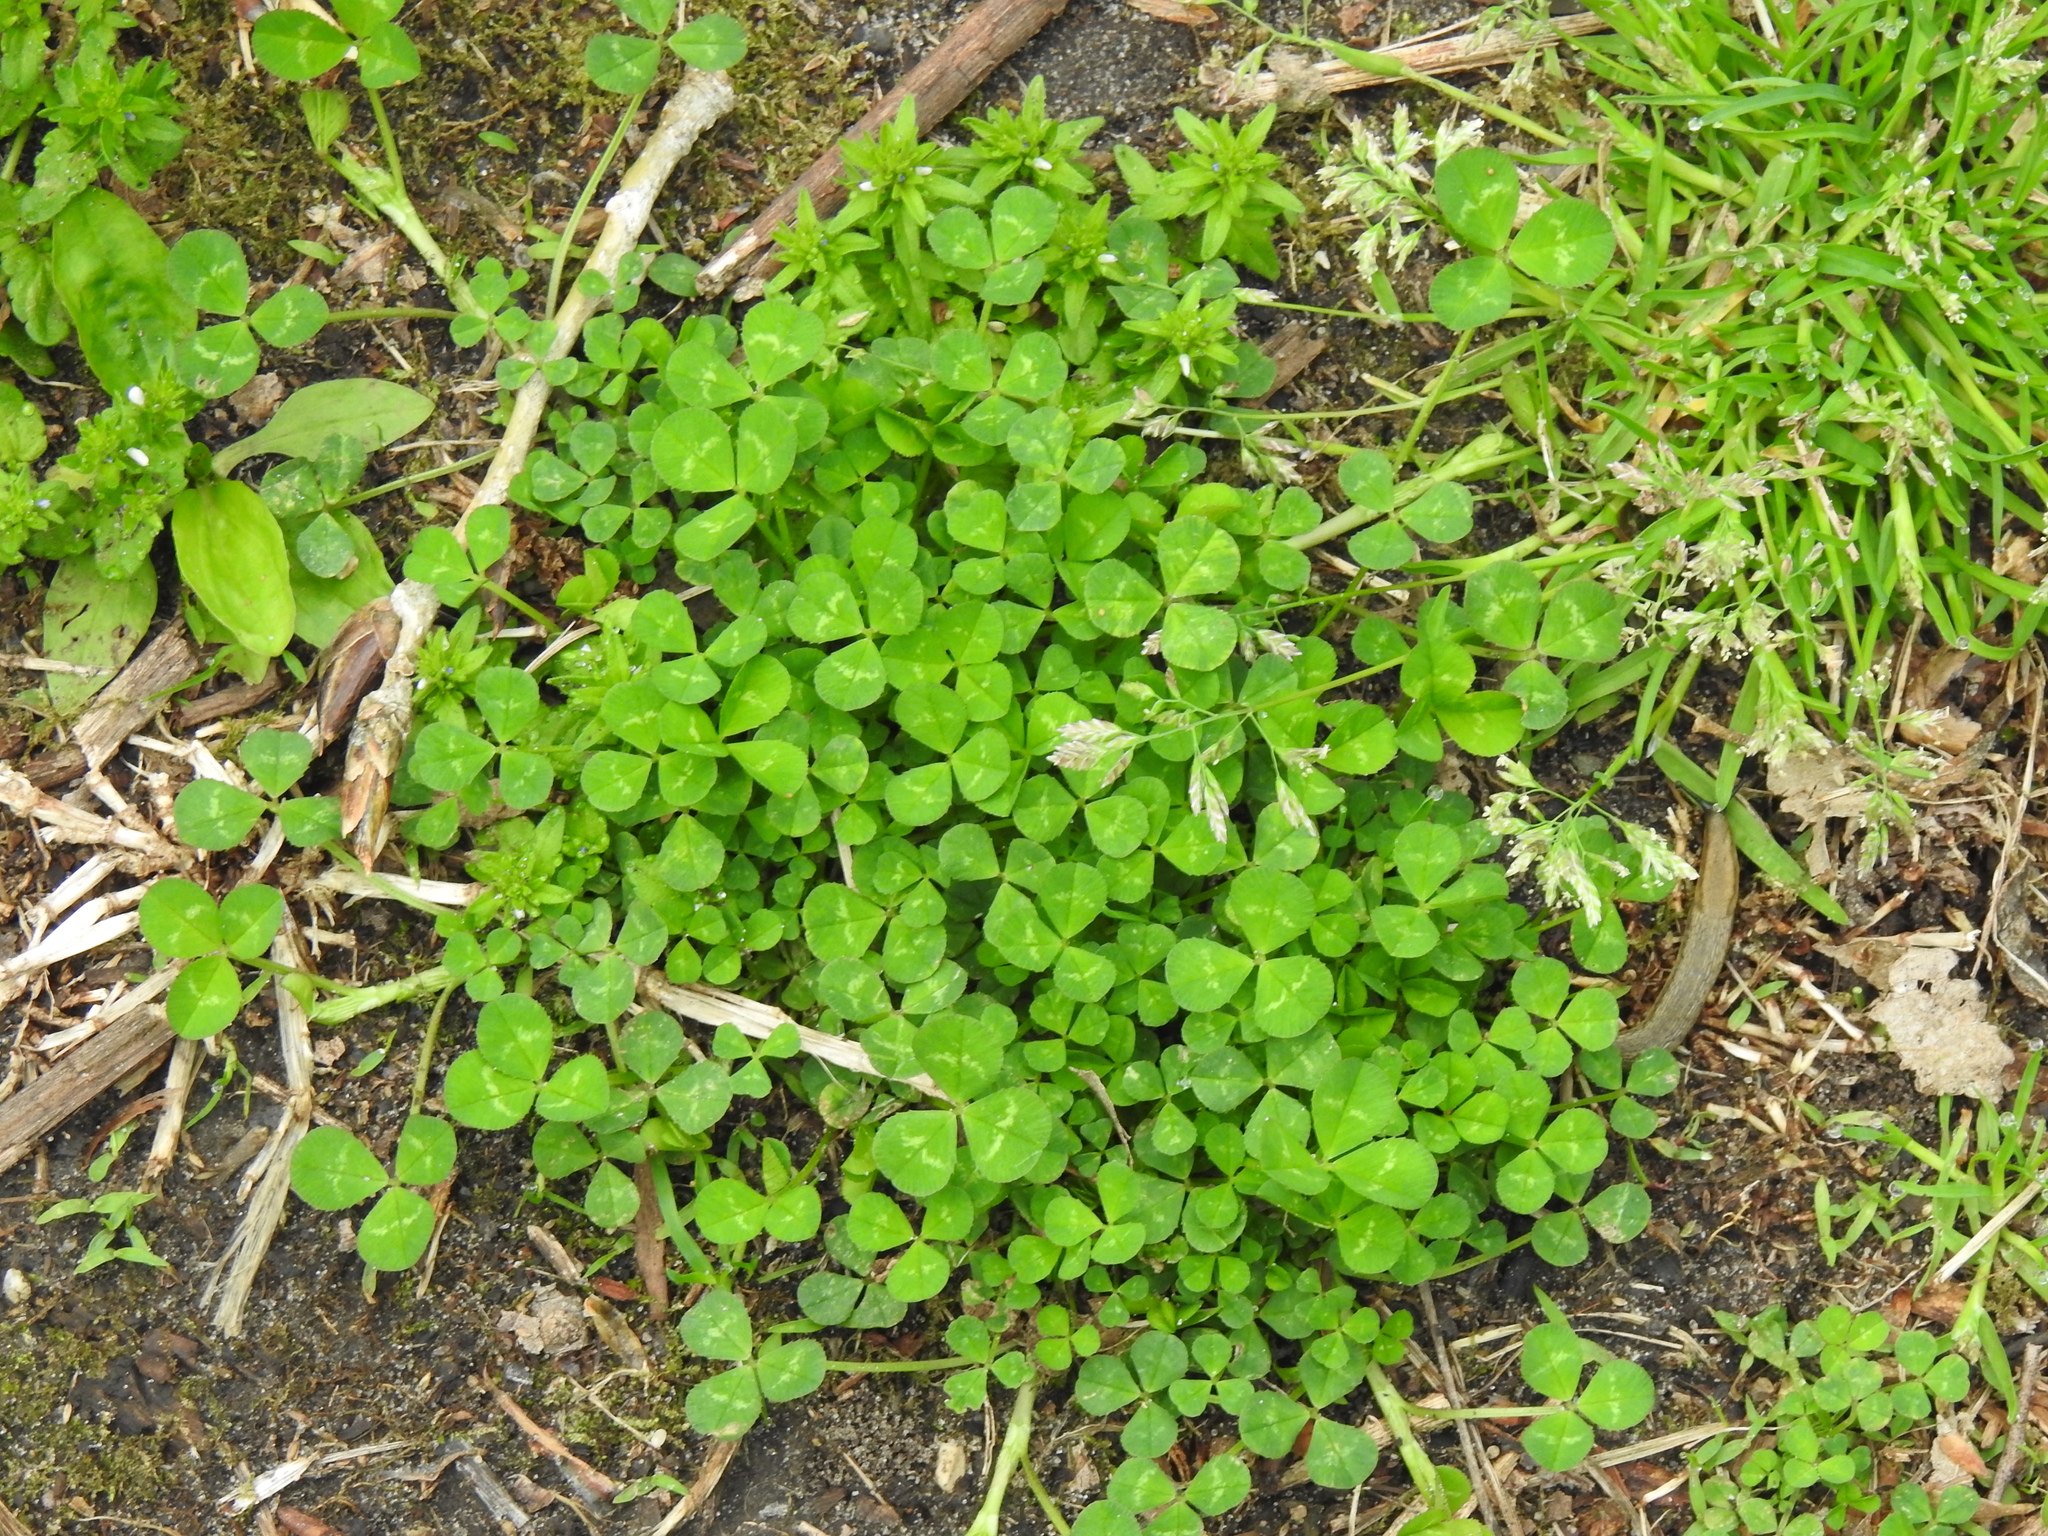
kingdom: Plantae
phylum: Tracheophyta
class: Magnoliopsida
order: Fabales
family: Fabaceae
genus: Trifolium
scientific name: Trifolium repens
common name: White clover
